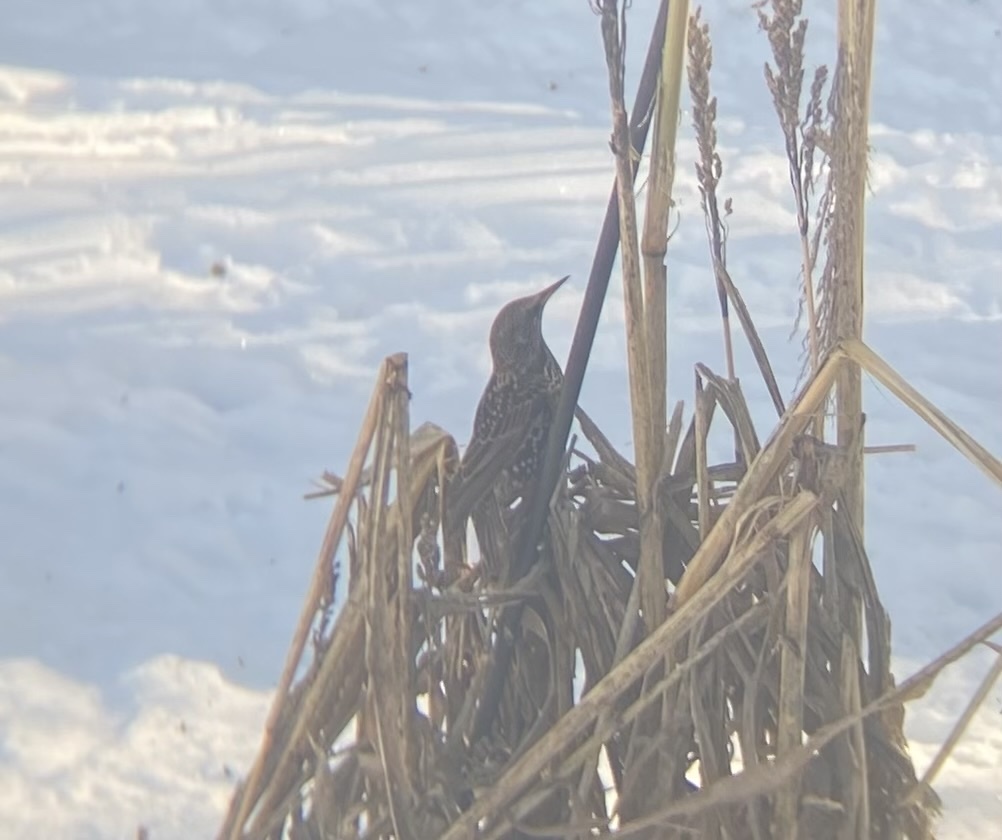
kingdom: Animalia
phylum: Chordata
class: Aves
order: Passeriformes
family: Sturnidae
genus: Sturnus
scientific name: Sturnus vulgaris
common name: Common starling
